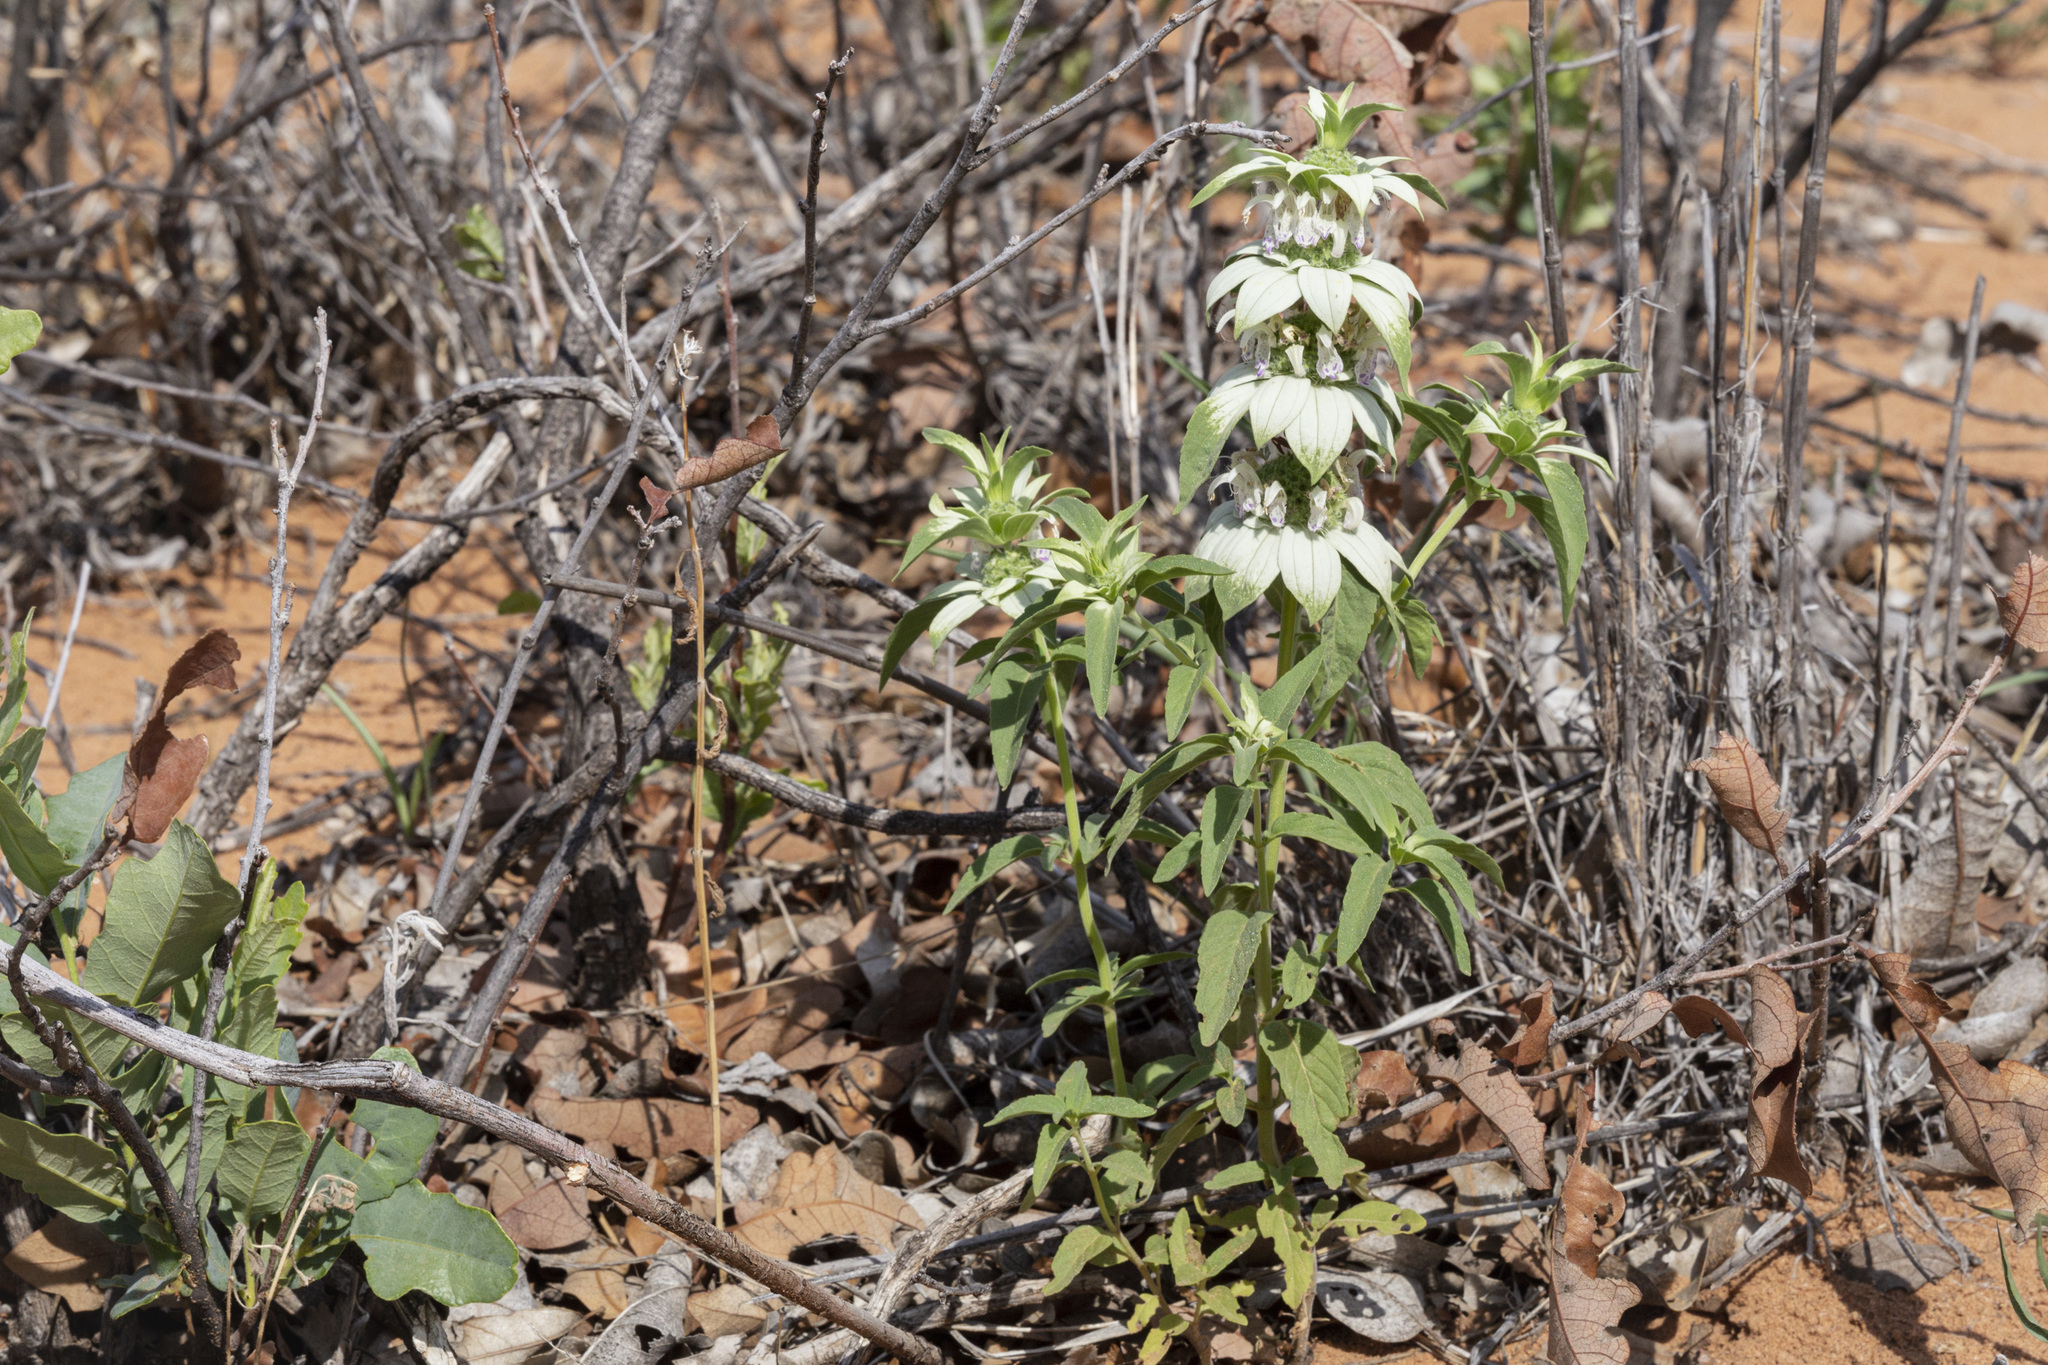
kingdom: Plantae
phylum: Tracheophyta
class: Magnoliopsida
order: Lamiales
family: Lamiaceae
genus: Monarda
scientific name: Monarda punctata
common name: Dotted monarda
